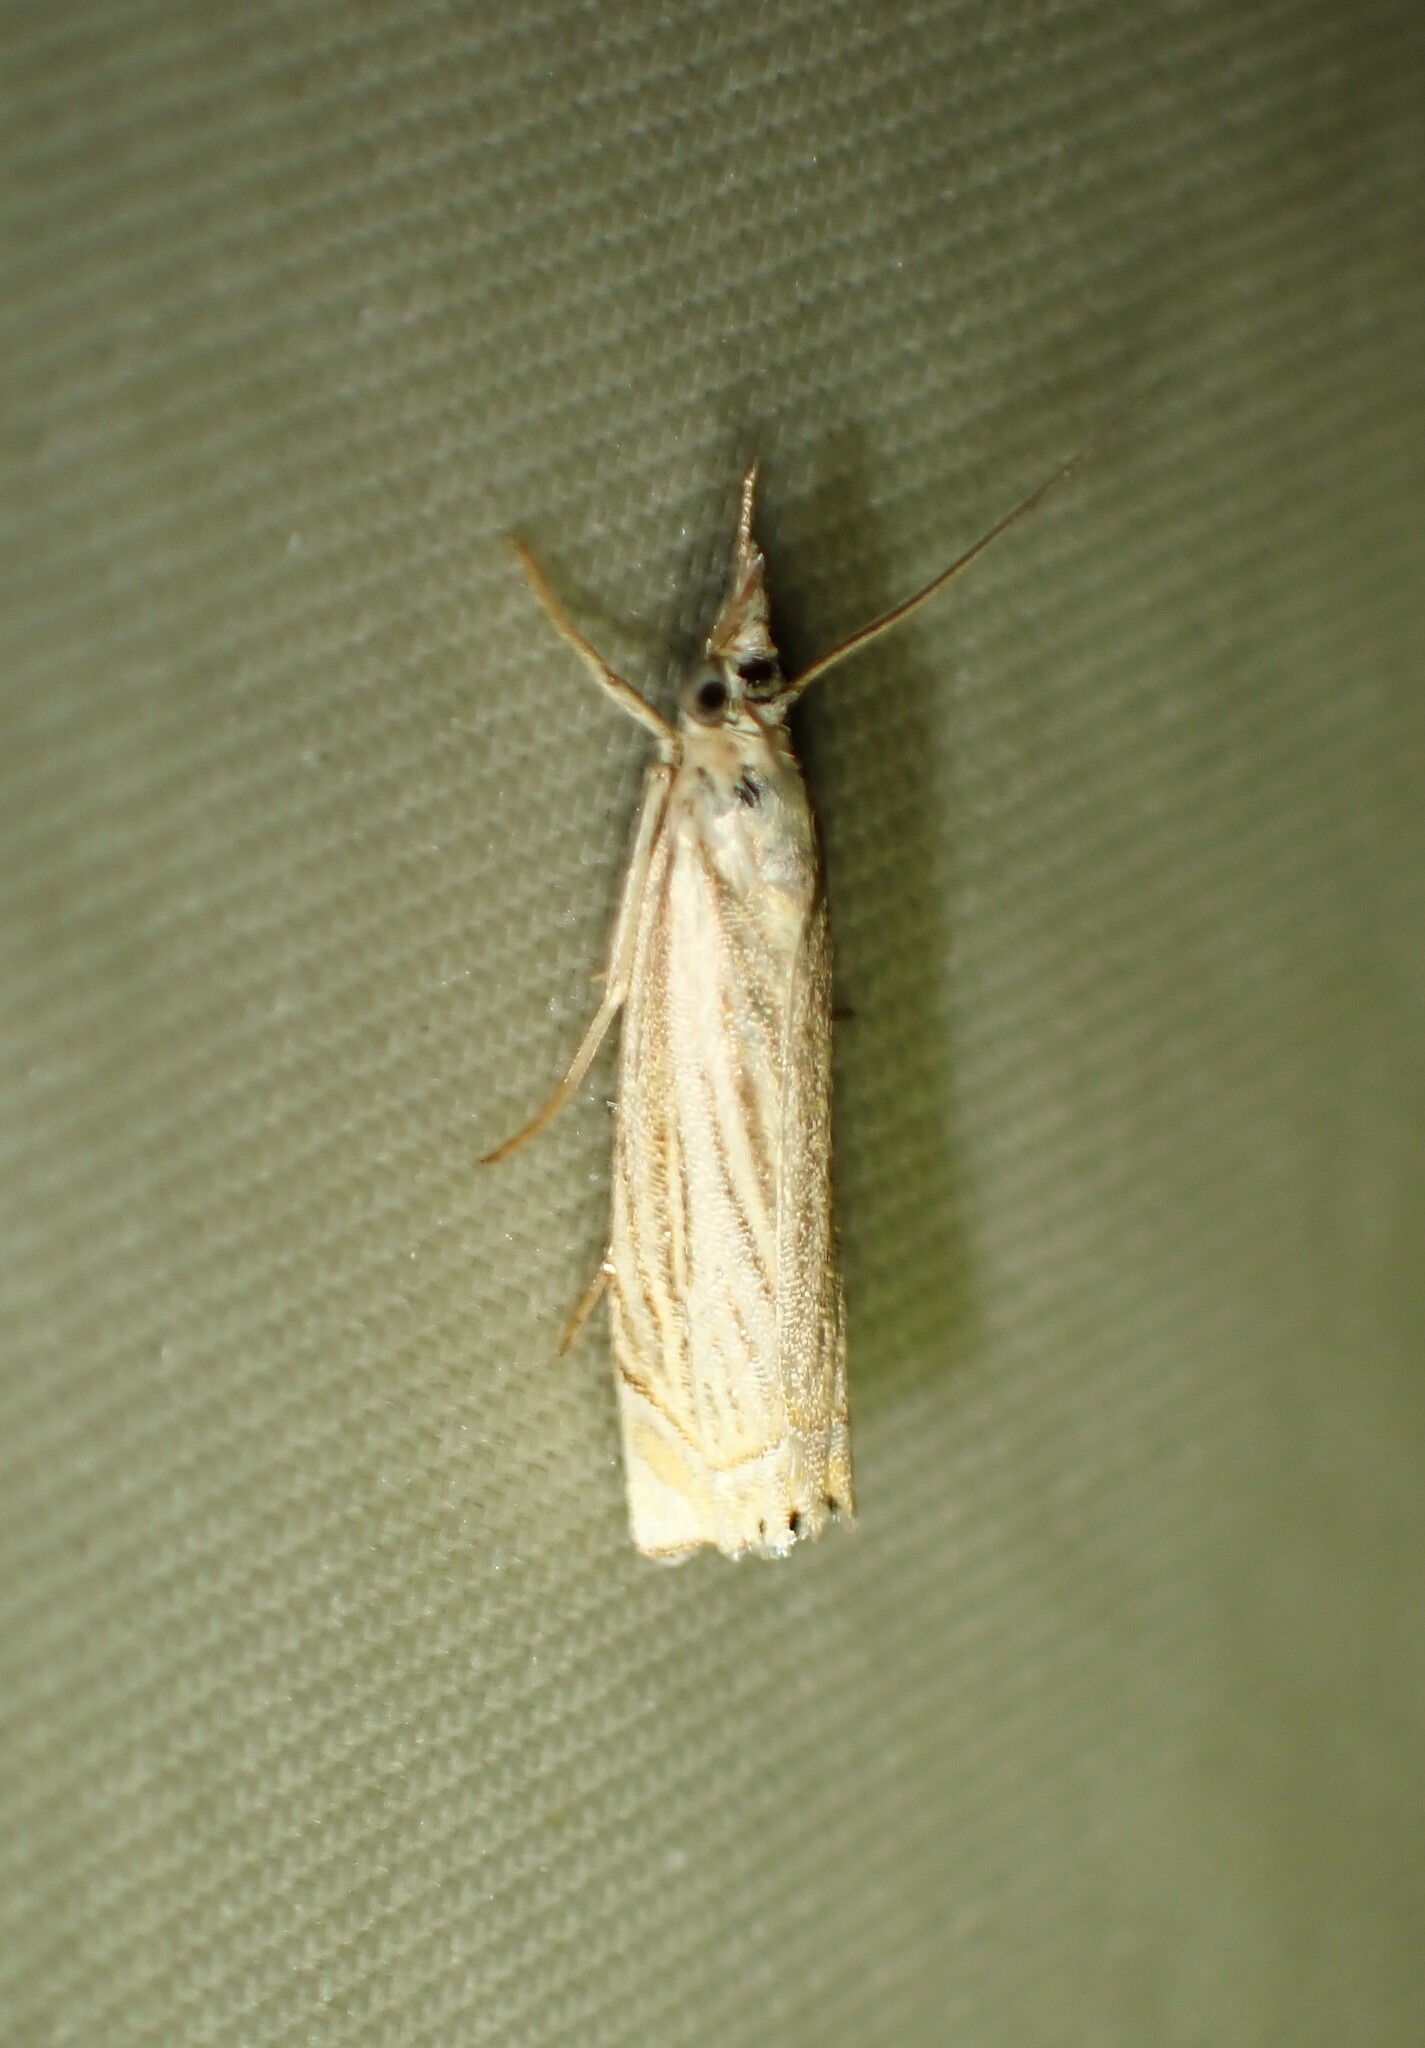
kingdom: Animalia
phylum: Arthropoda
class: Insecta
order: Lepidoptera
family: Crambidae
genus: Chrysoteuchia
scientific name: Chrysoteuchia topiarius
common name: Topiary grass-veneer
